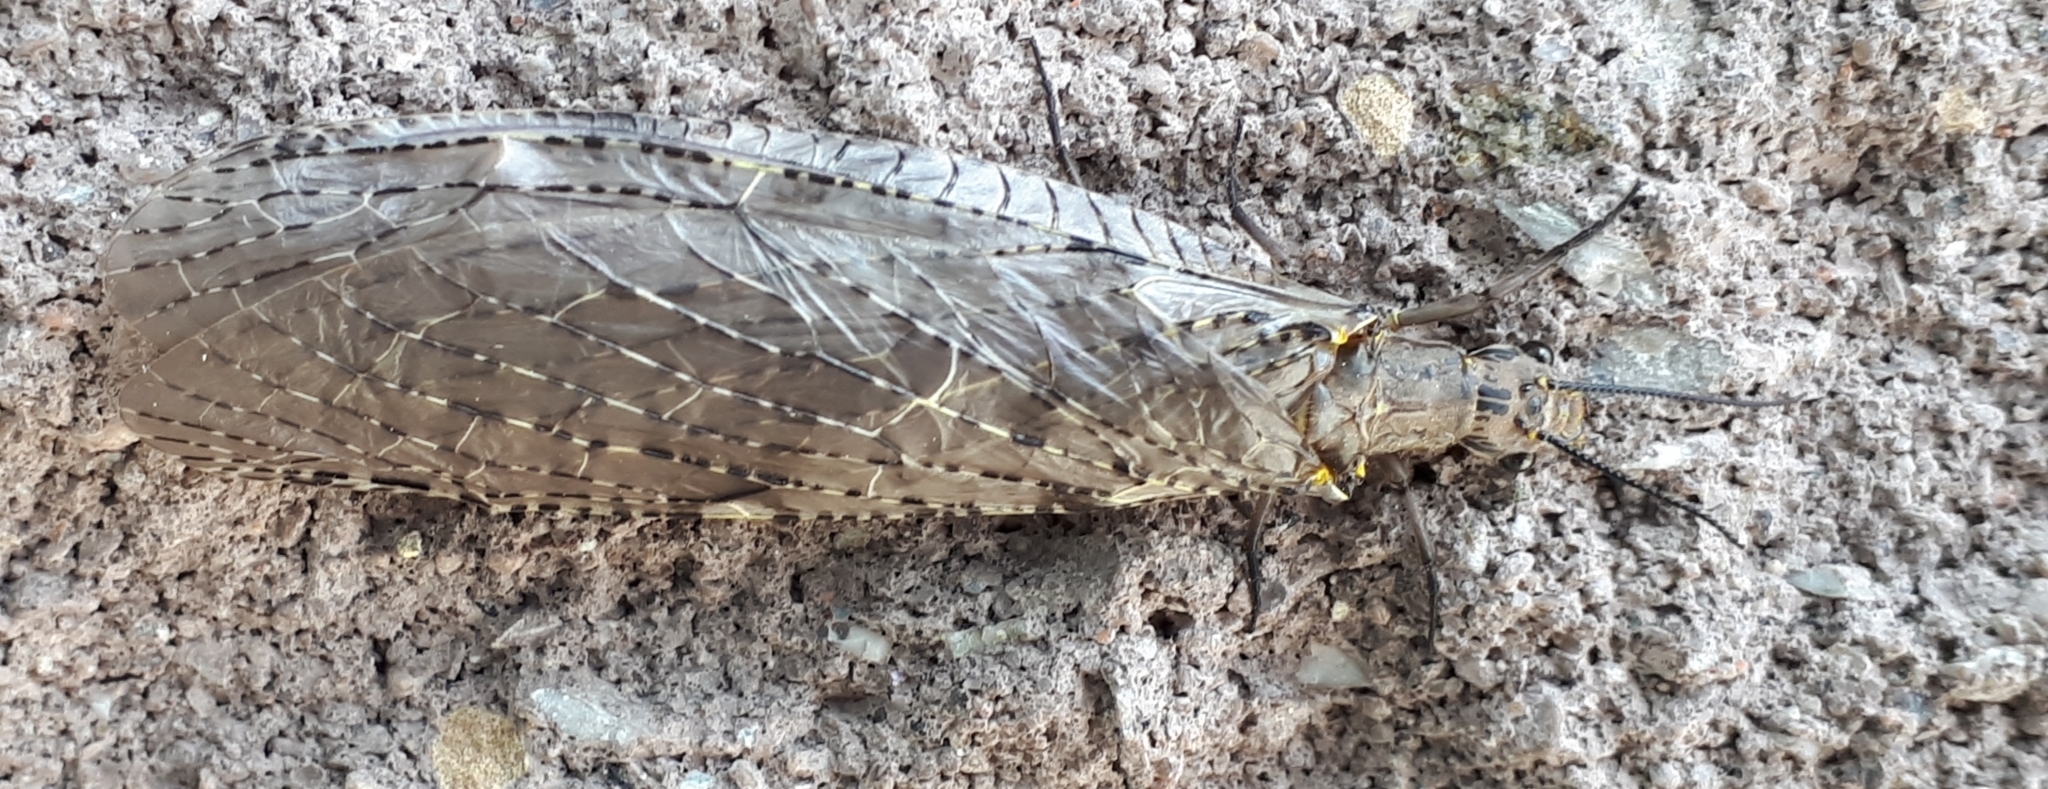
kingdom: Animalia
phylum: Arthropoda
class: Insecta
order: Megaloptera
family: Corydalidae
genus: Chauliodes
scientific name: Chauliodes rastricornis
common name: Spring fishfly
